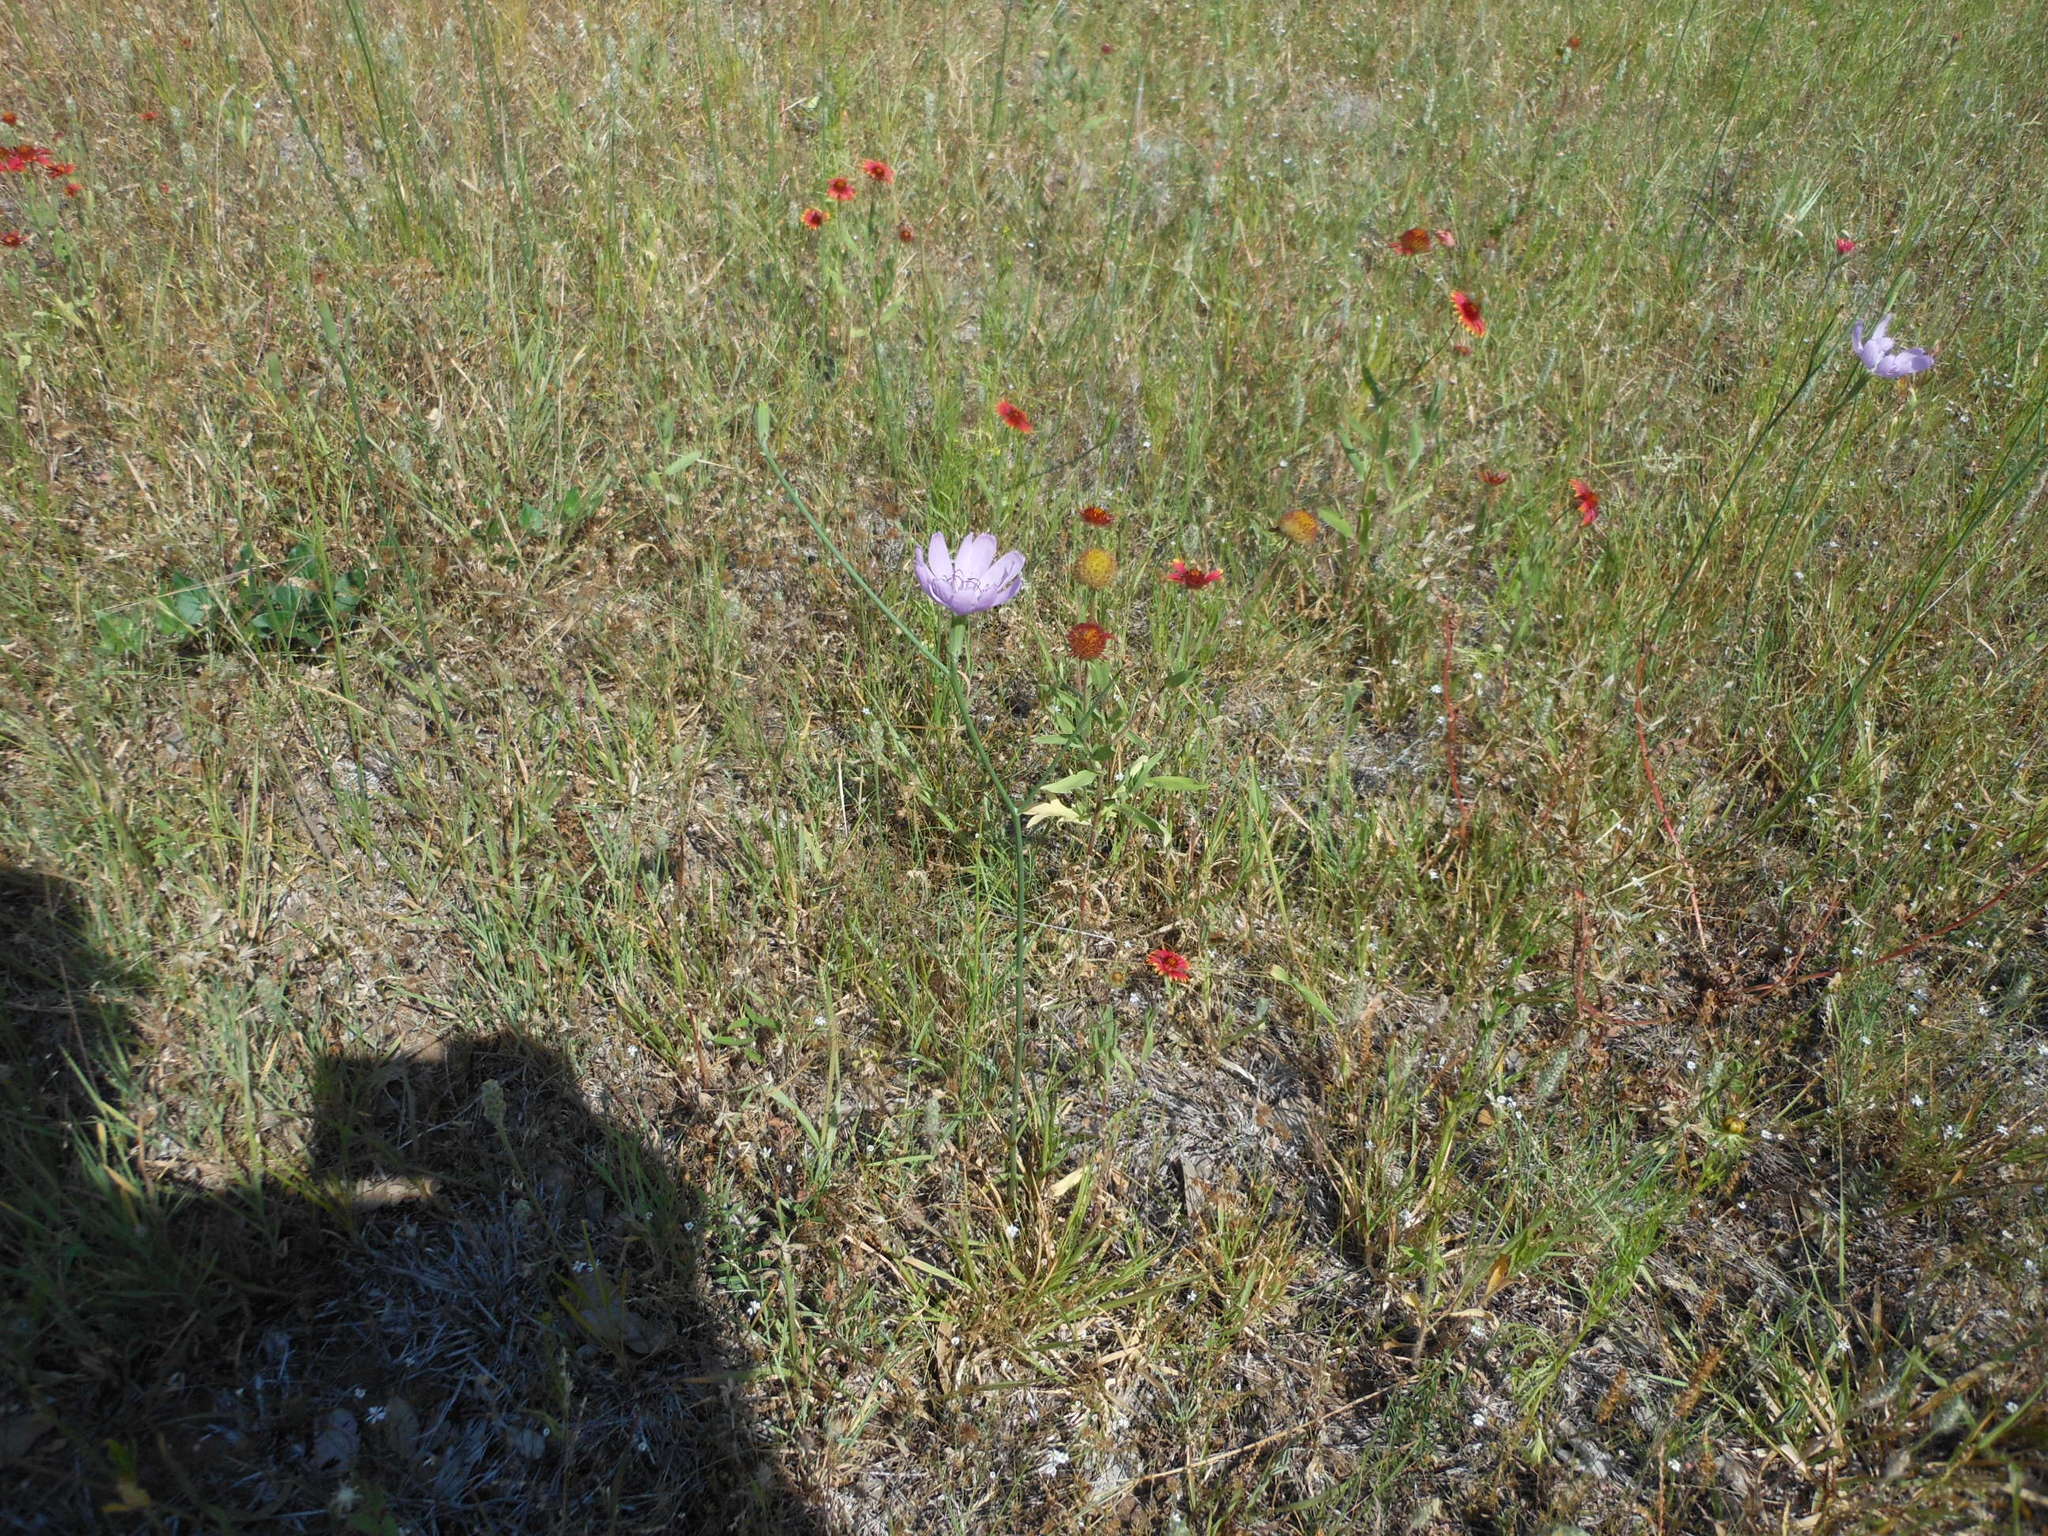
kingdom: Plantae
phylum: Tracheophyta
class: Magnoliopsida
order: Asterales
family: Asteraceae
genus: Lygodesmia
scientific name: Lygodesmia texana
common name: Texas skeleton-plant
